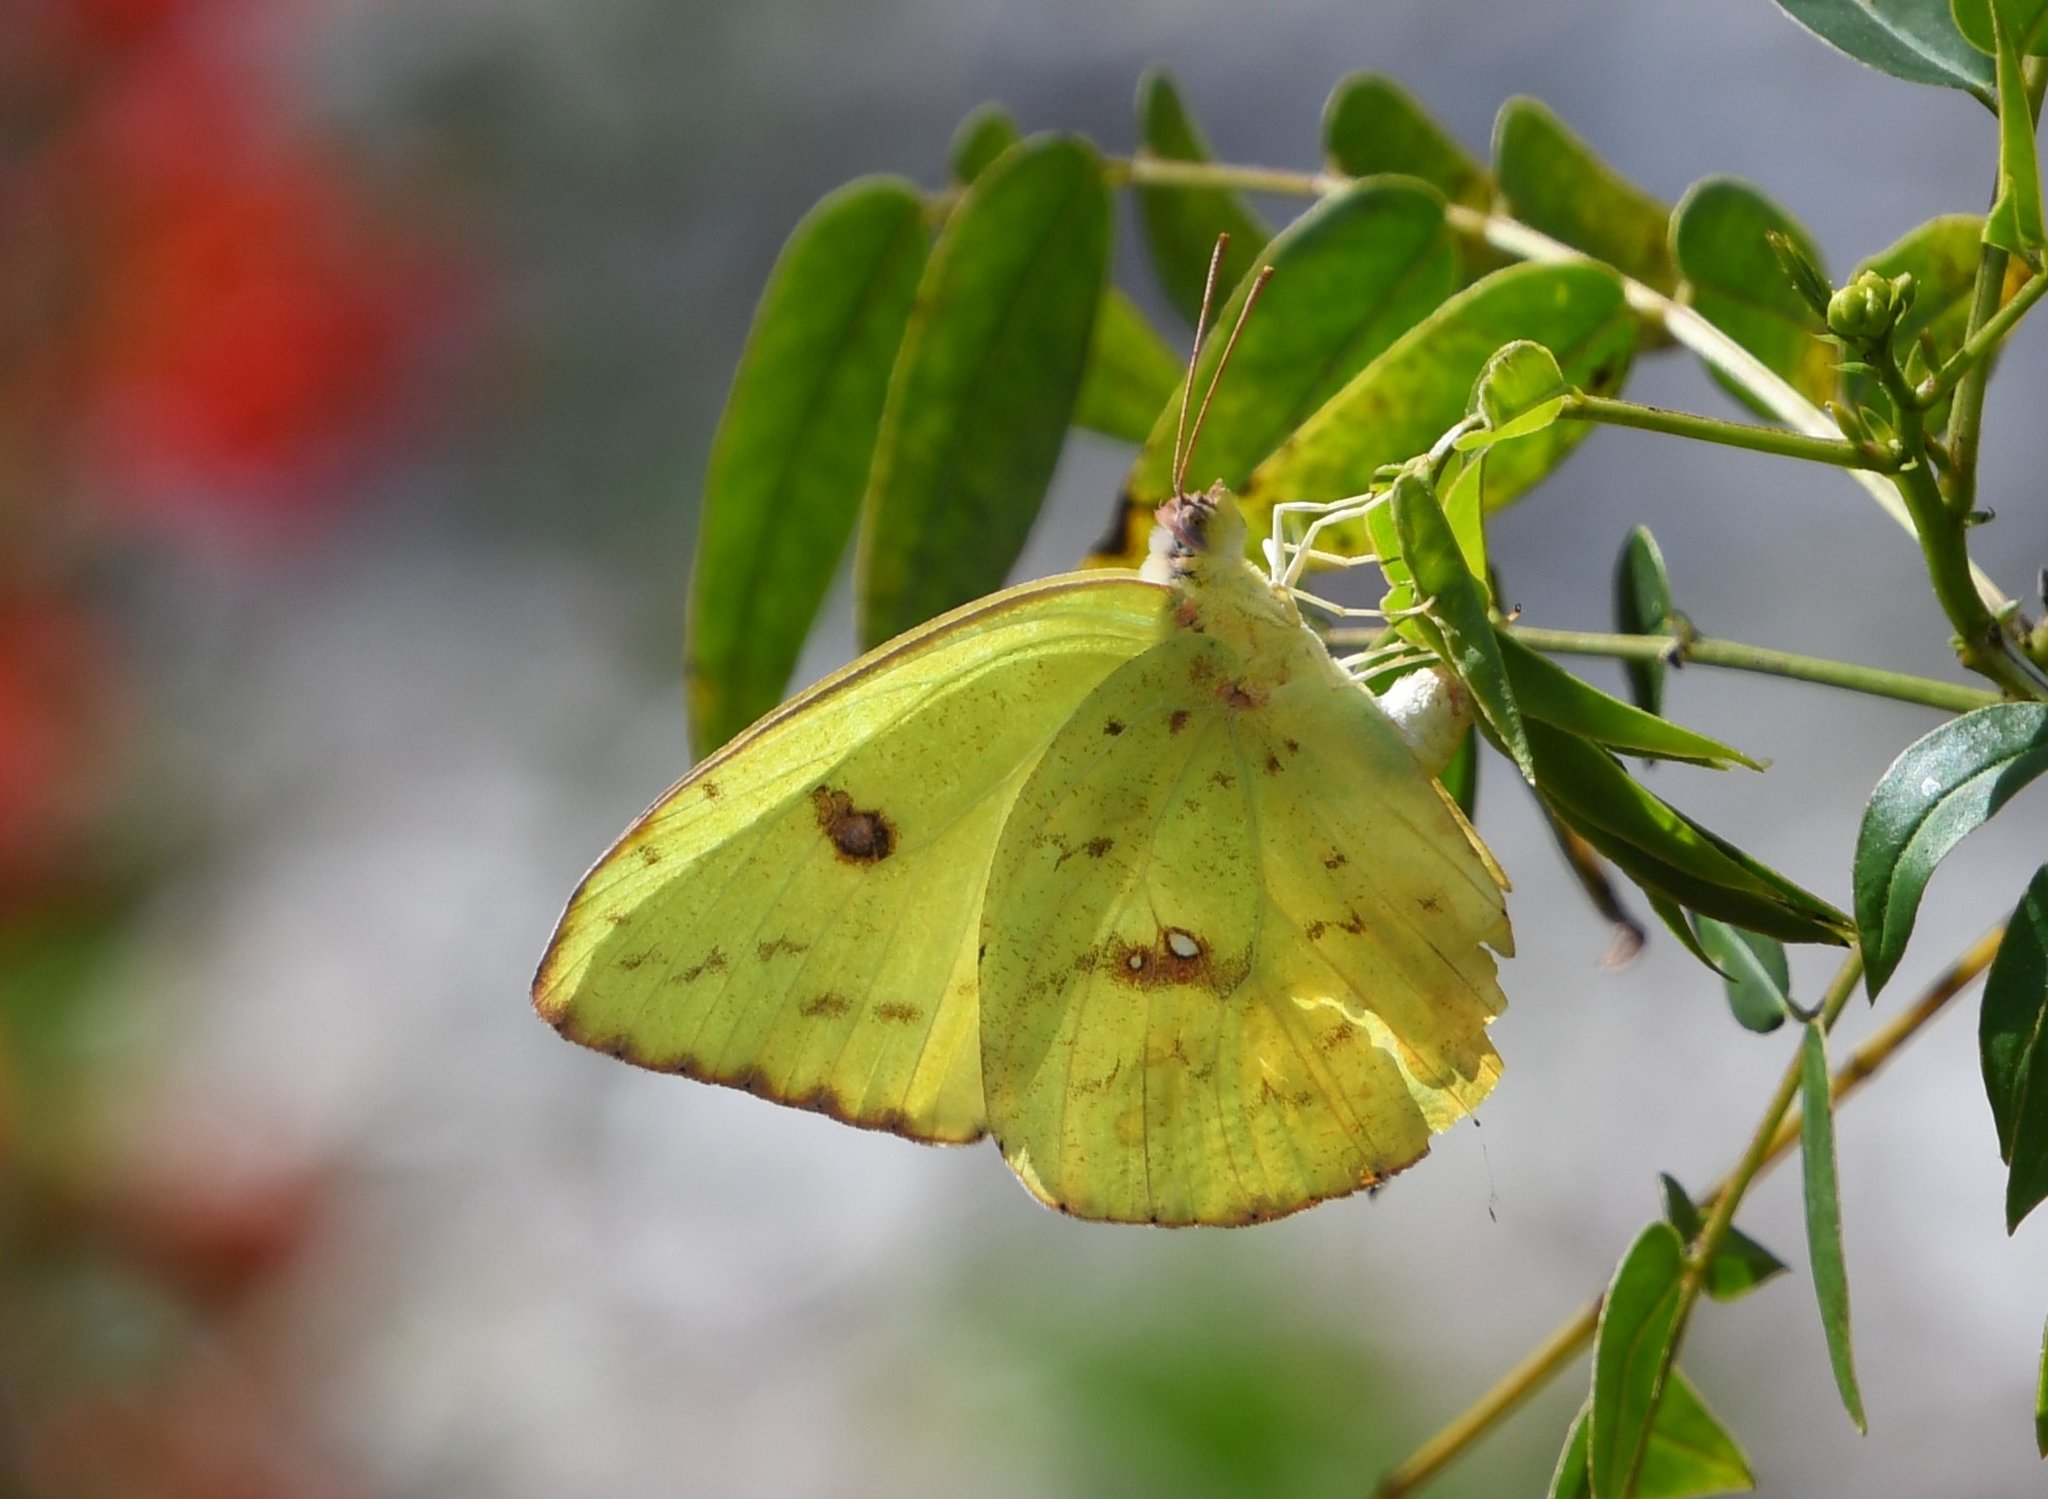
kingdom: Animalia
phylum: Arthropoda
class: Insecta
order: Lepidoptera
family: Pieridae
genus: Phoebis
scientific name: Phoebis sennae
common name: Cloudless sulphur
